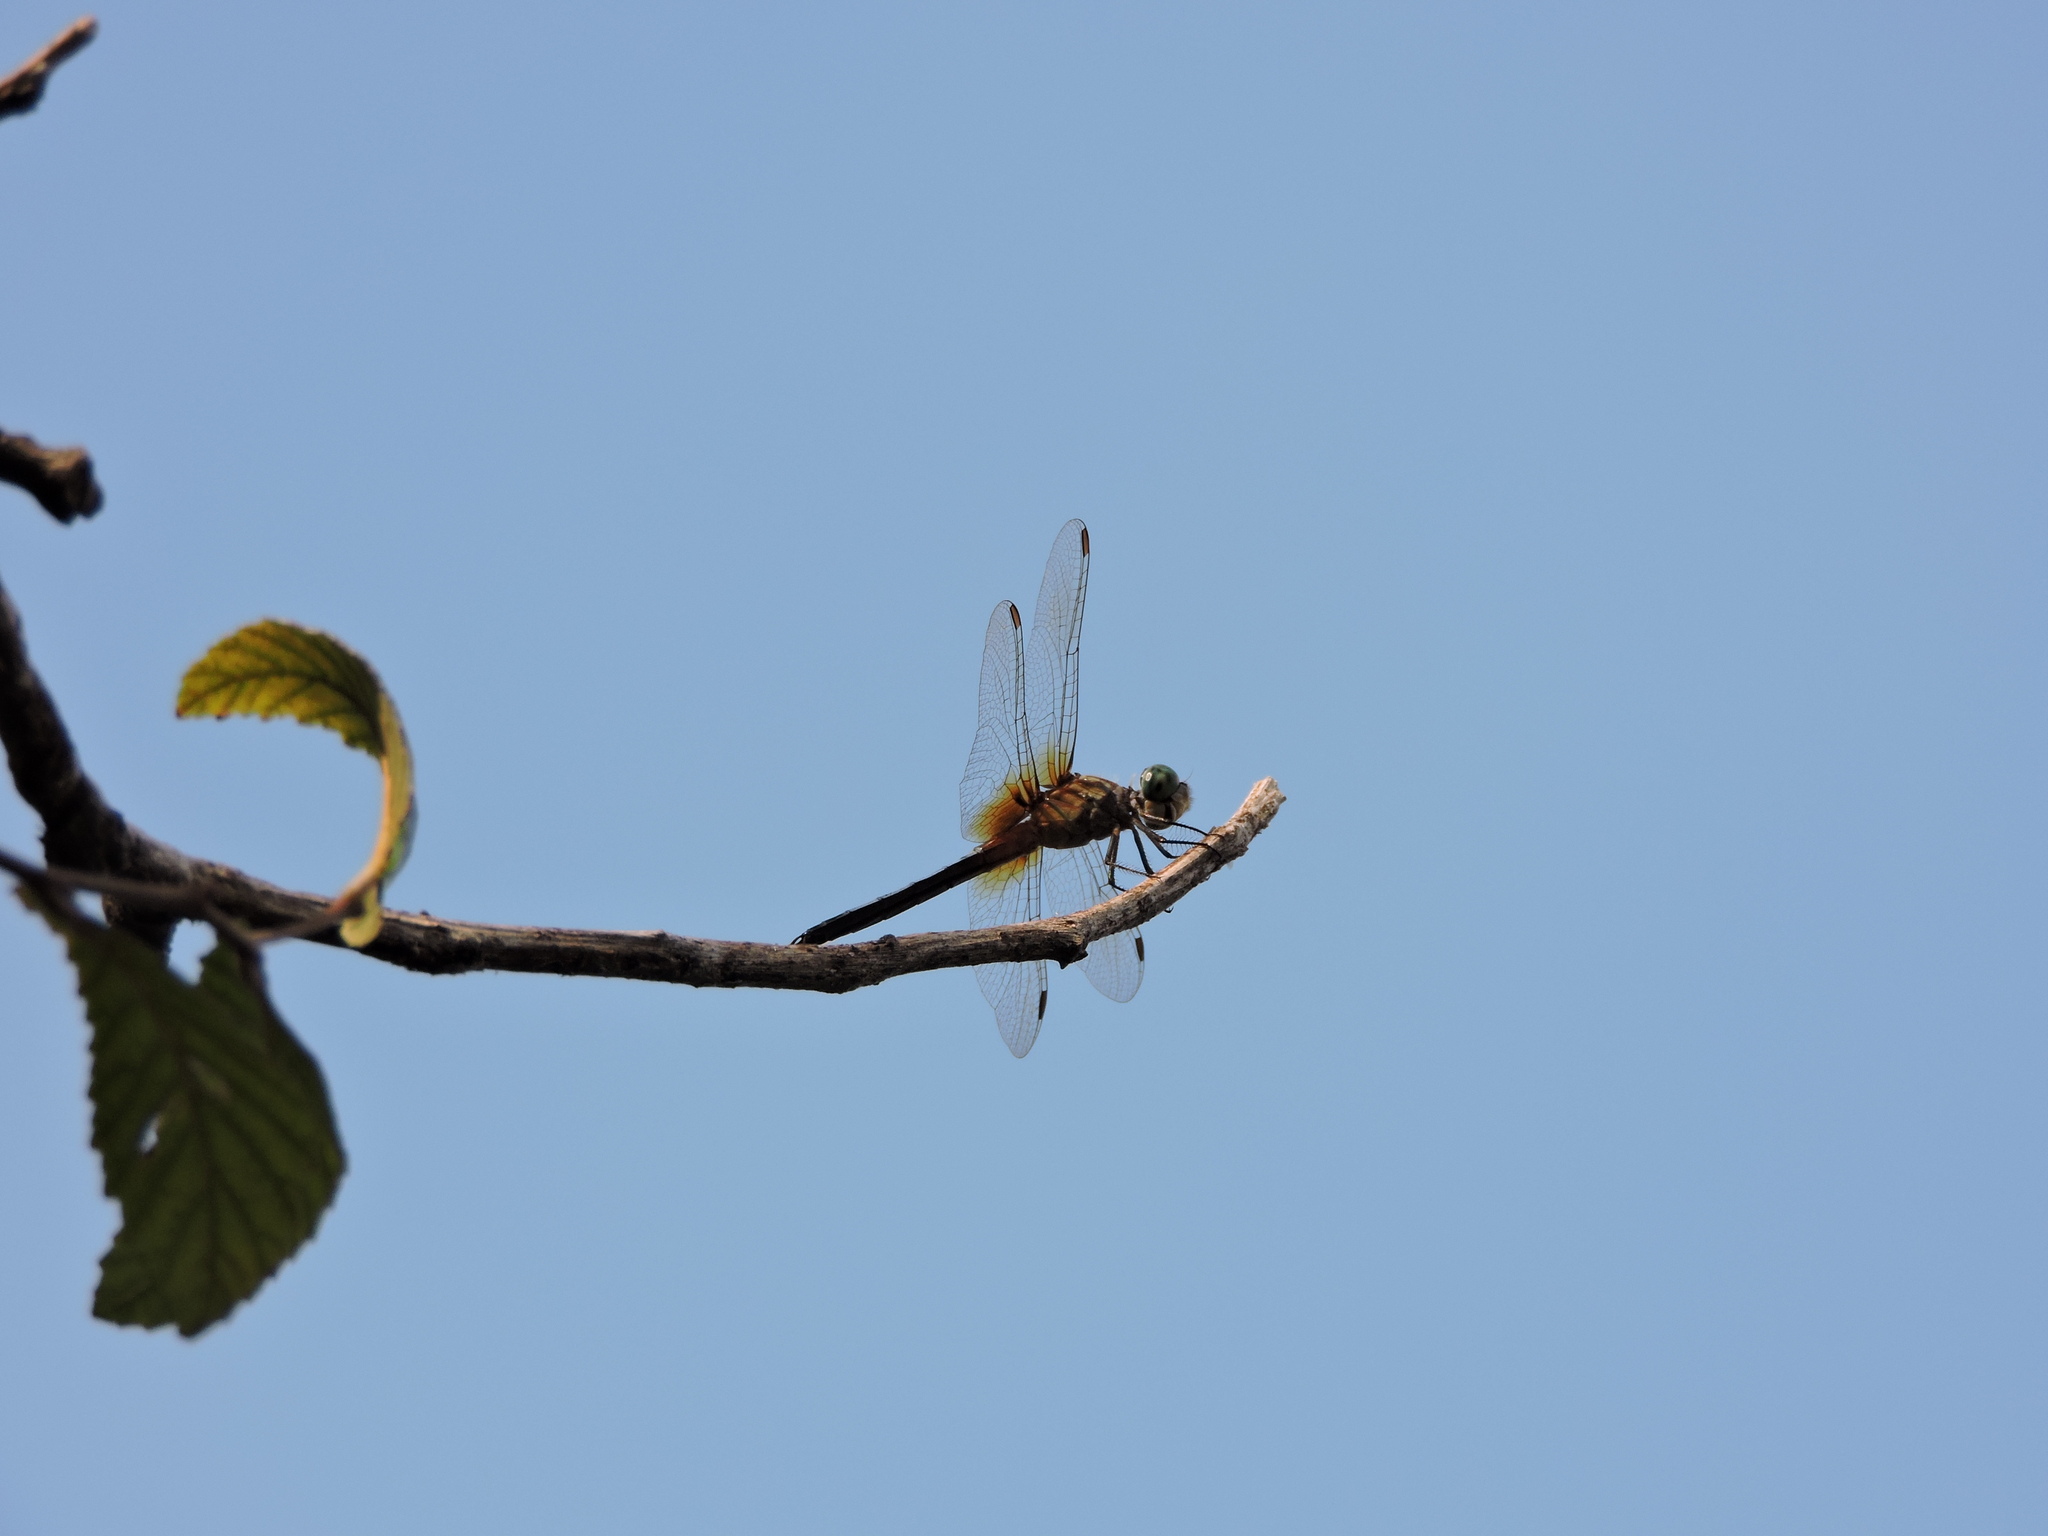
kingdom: Animalia
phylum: Arthropoda
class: Insecta
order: Odonata
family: Libellulidae
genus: Pachydiplax
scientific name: Pachydiplax longipennis
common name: Blue dasher
